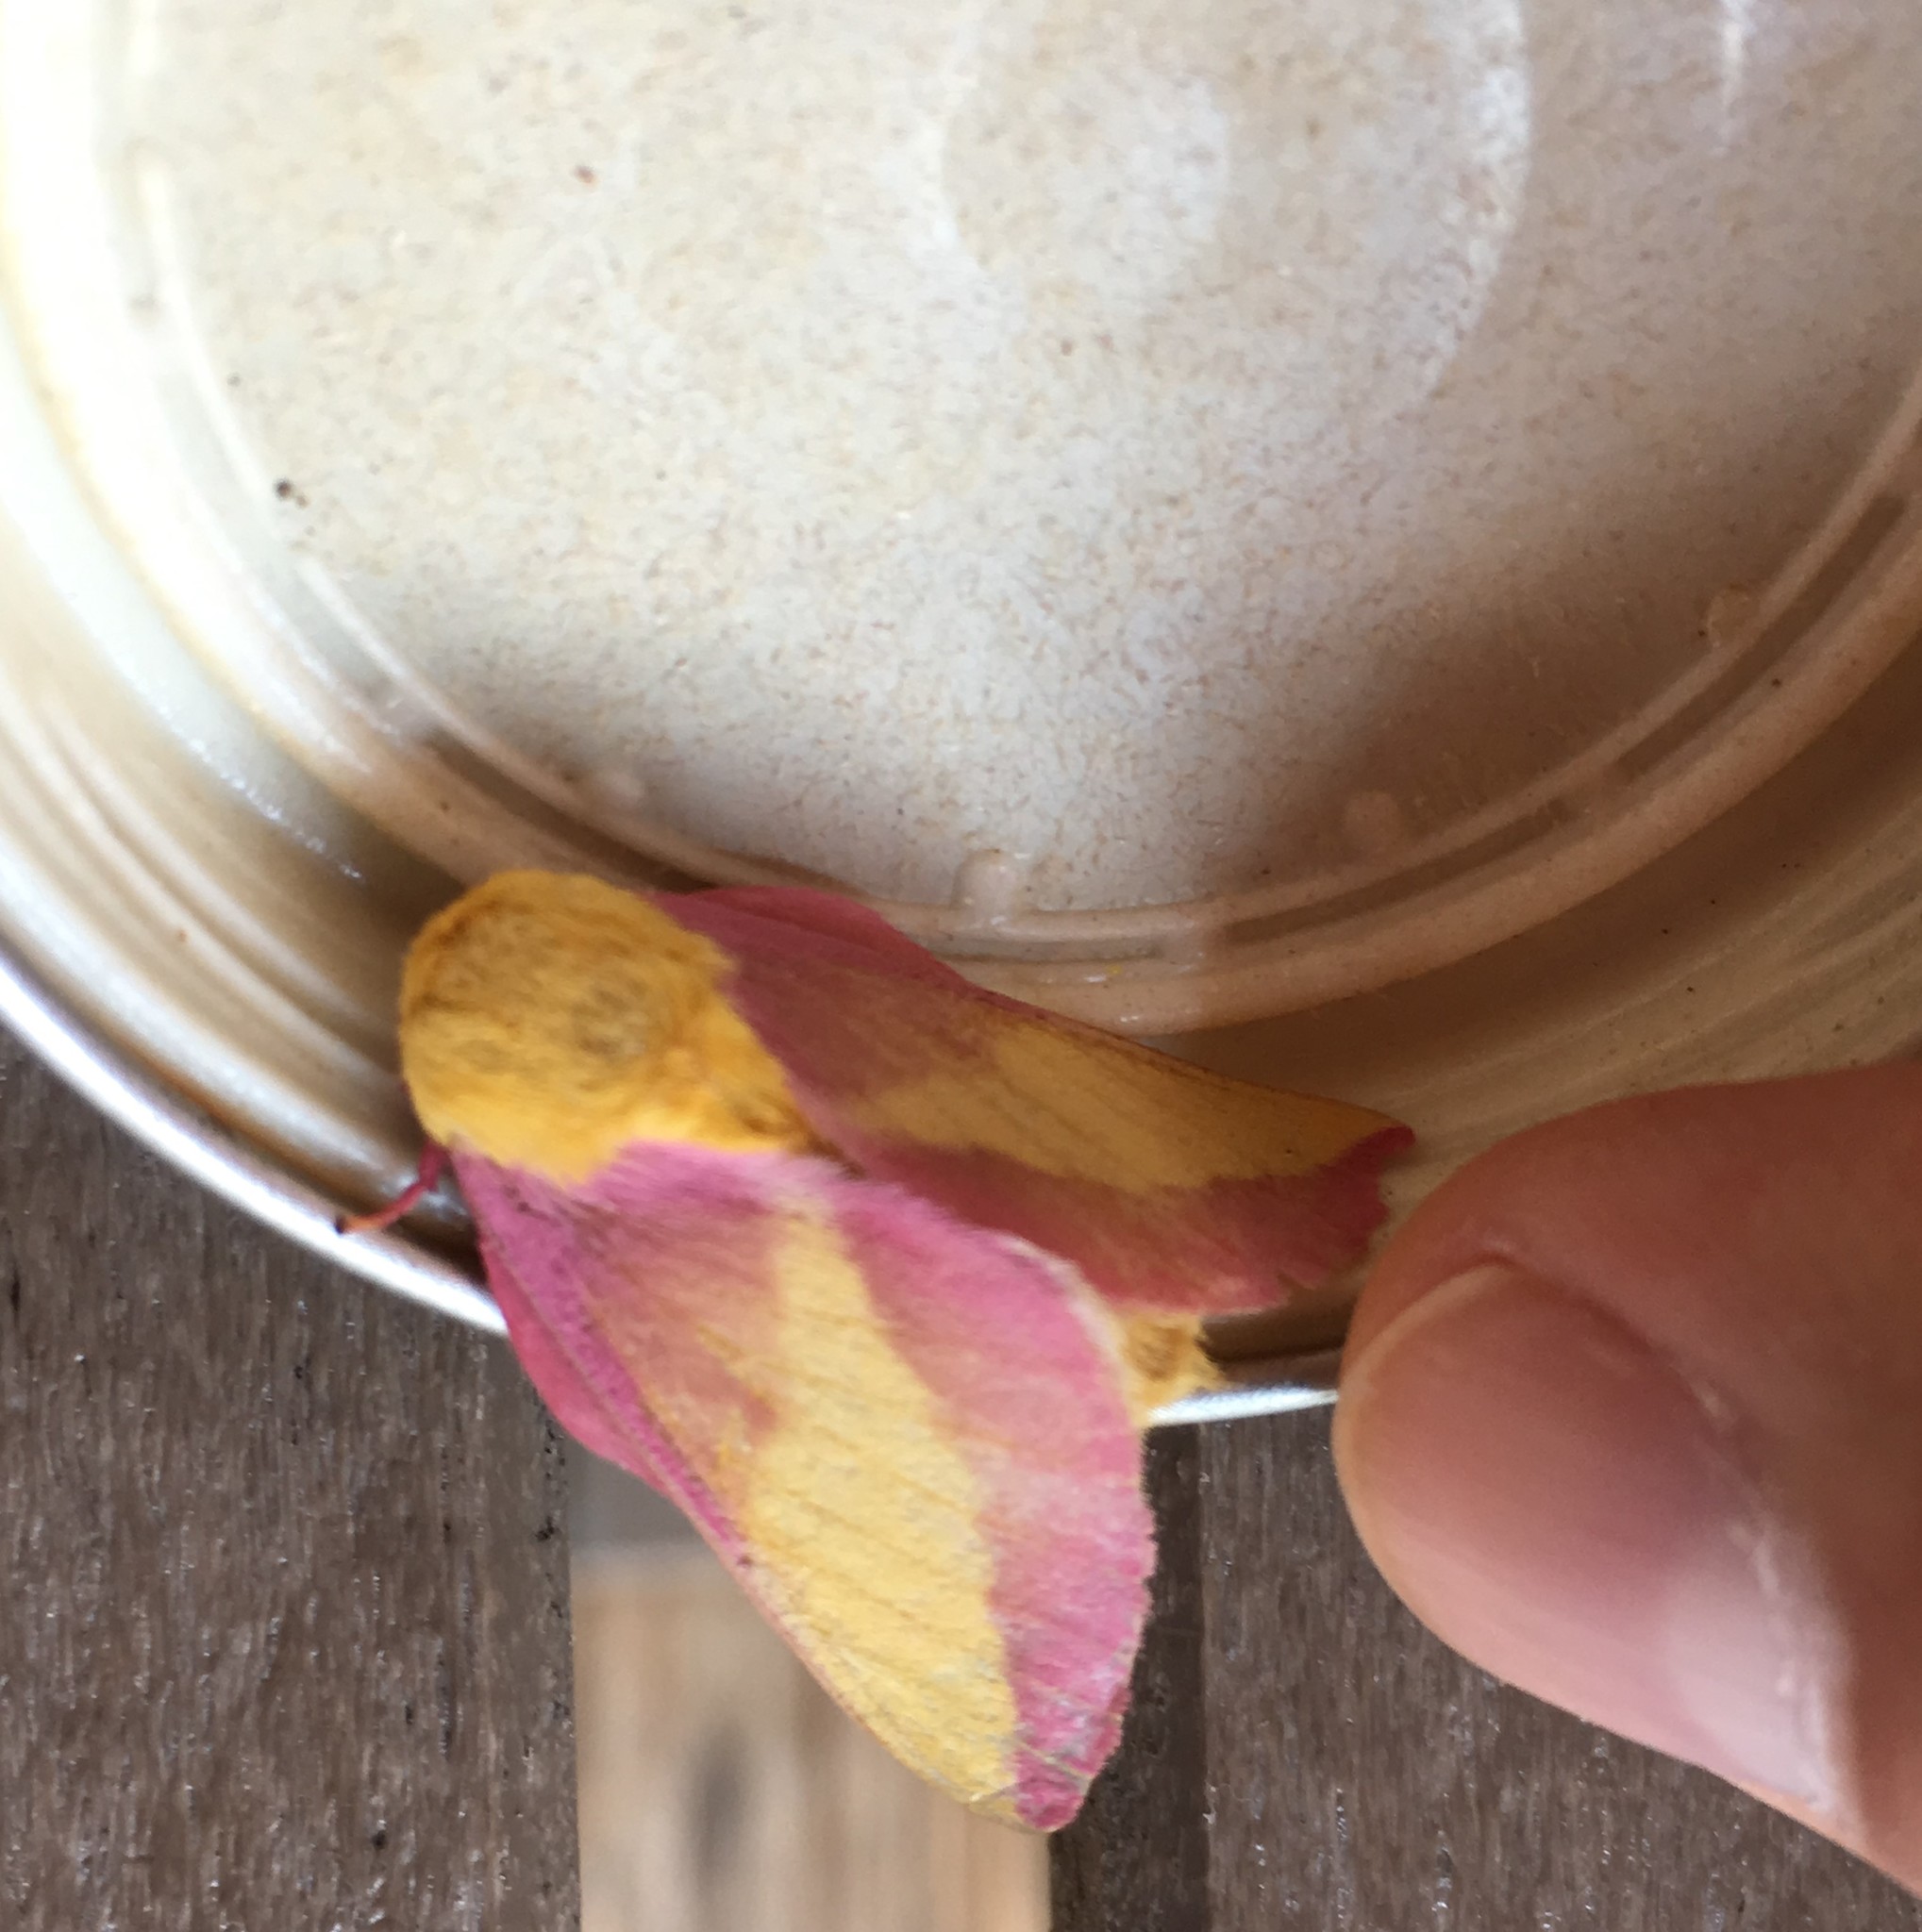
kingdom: Animalia
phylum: Arthropoda
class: Insecta
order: Lepidoptera
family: Saturniidae
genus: Dryocampa
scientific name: Dryocampa rubicunda
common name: Rosy maple moth
